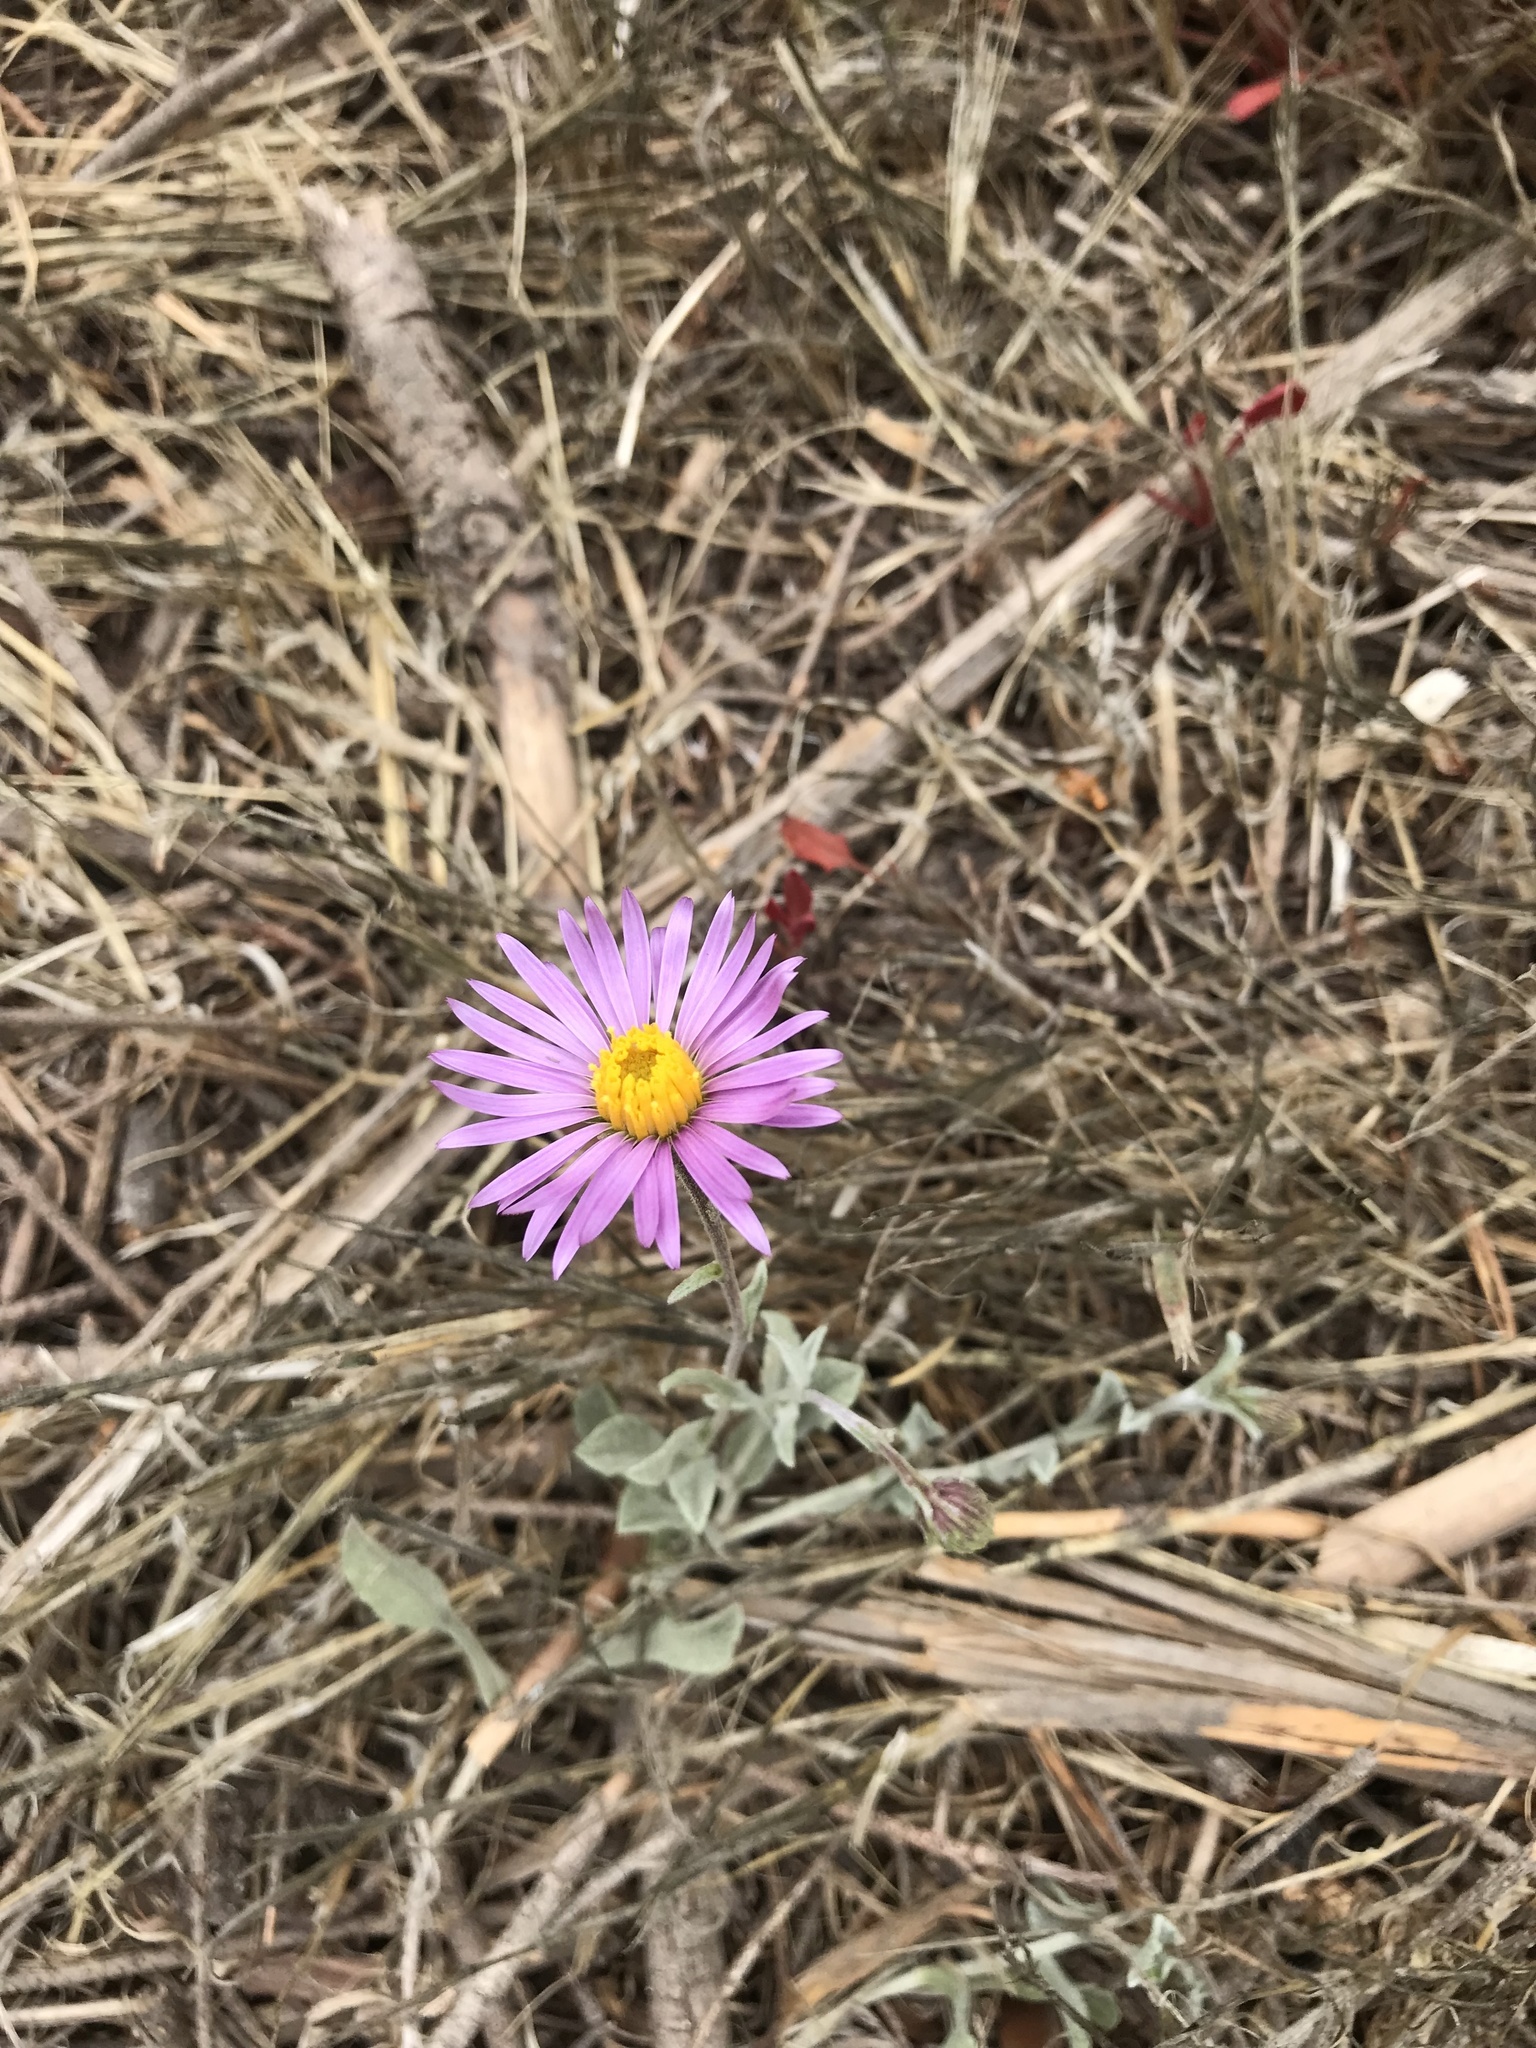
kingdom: Plantae
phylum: Tracheophyta
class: Magnoliopsida
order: Asterales
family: Asteraceae
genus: Corethrogyne
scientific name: Corethrogyne filaginifolia
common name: Sand-aster
